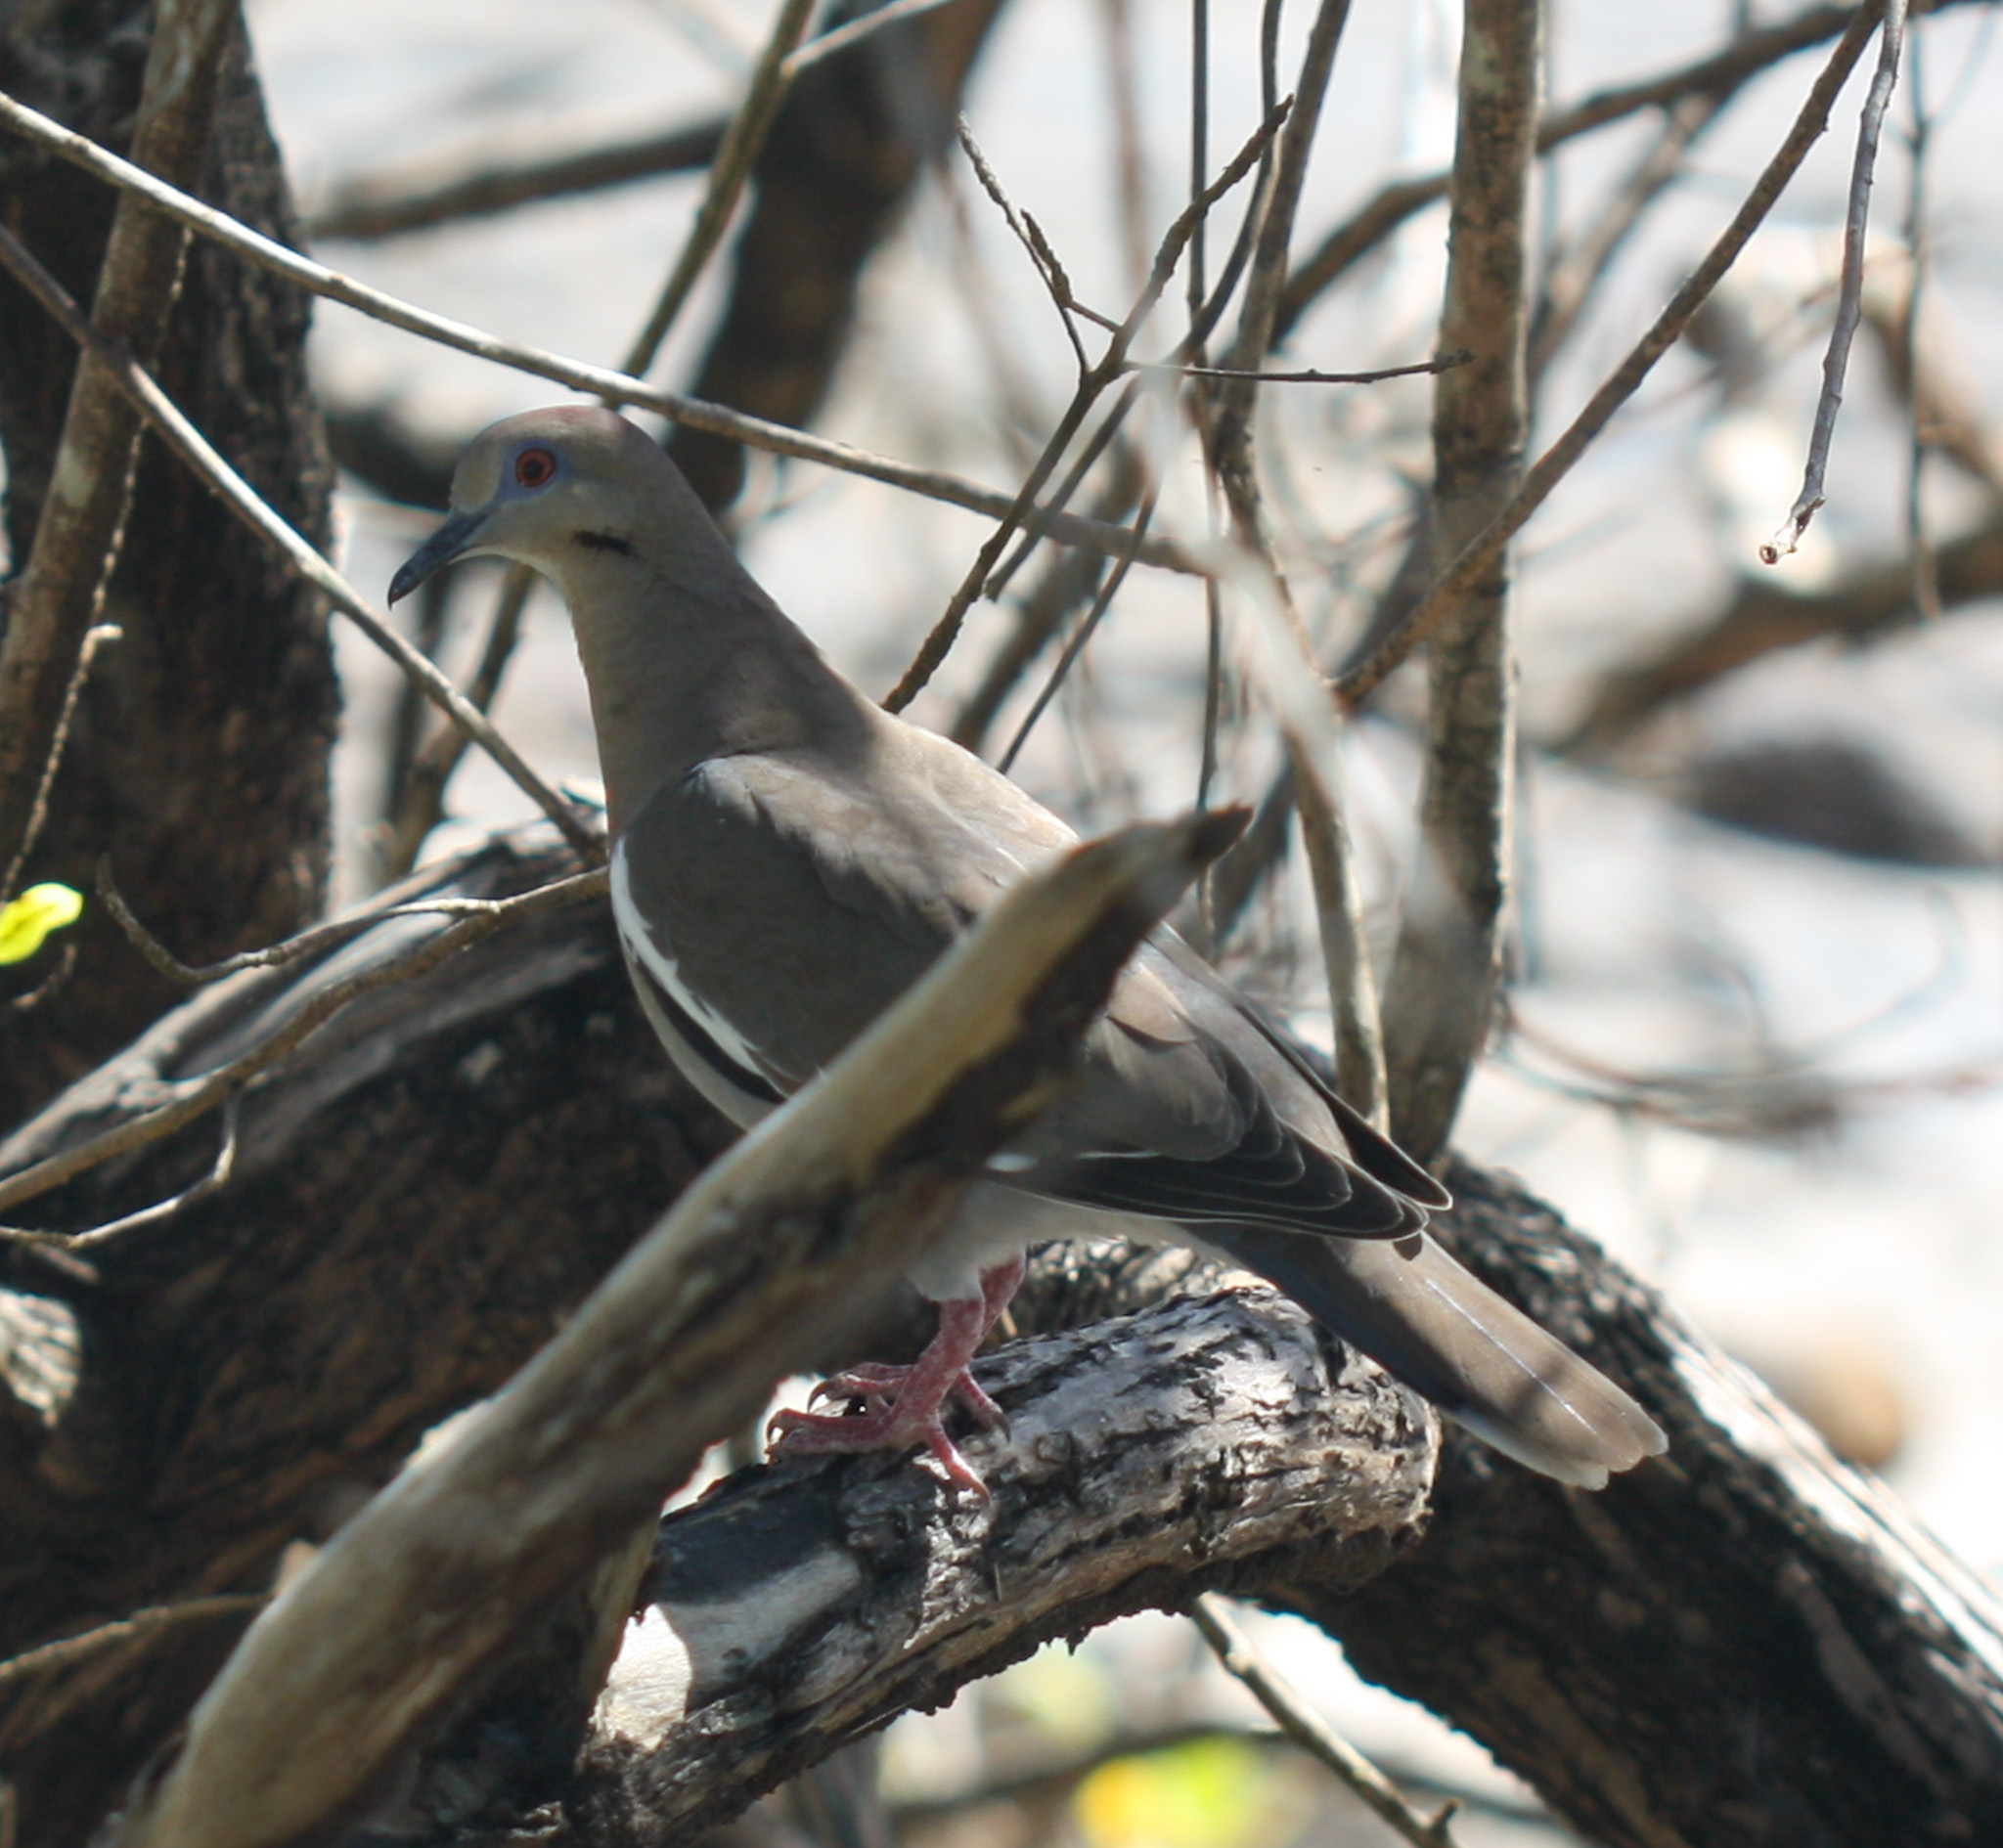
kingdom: Animalia
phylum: Chordata
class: Aves
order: Columbiformes
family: Columbidae
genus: Zenaida
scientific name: Zenaida asiatica
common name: White-winged dove
